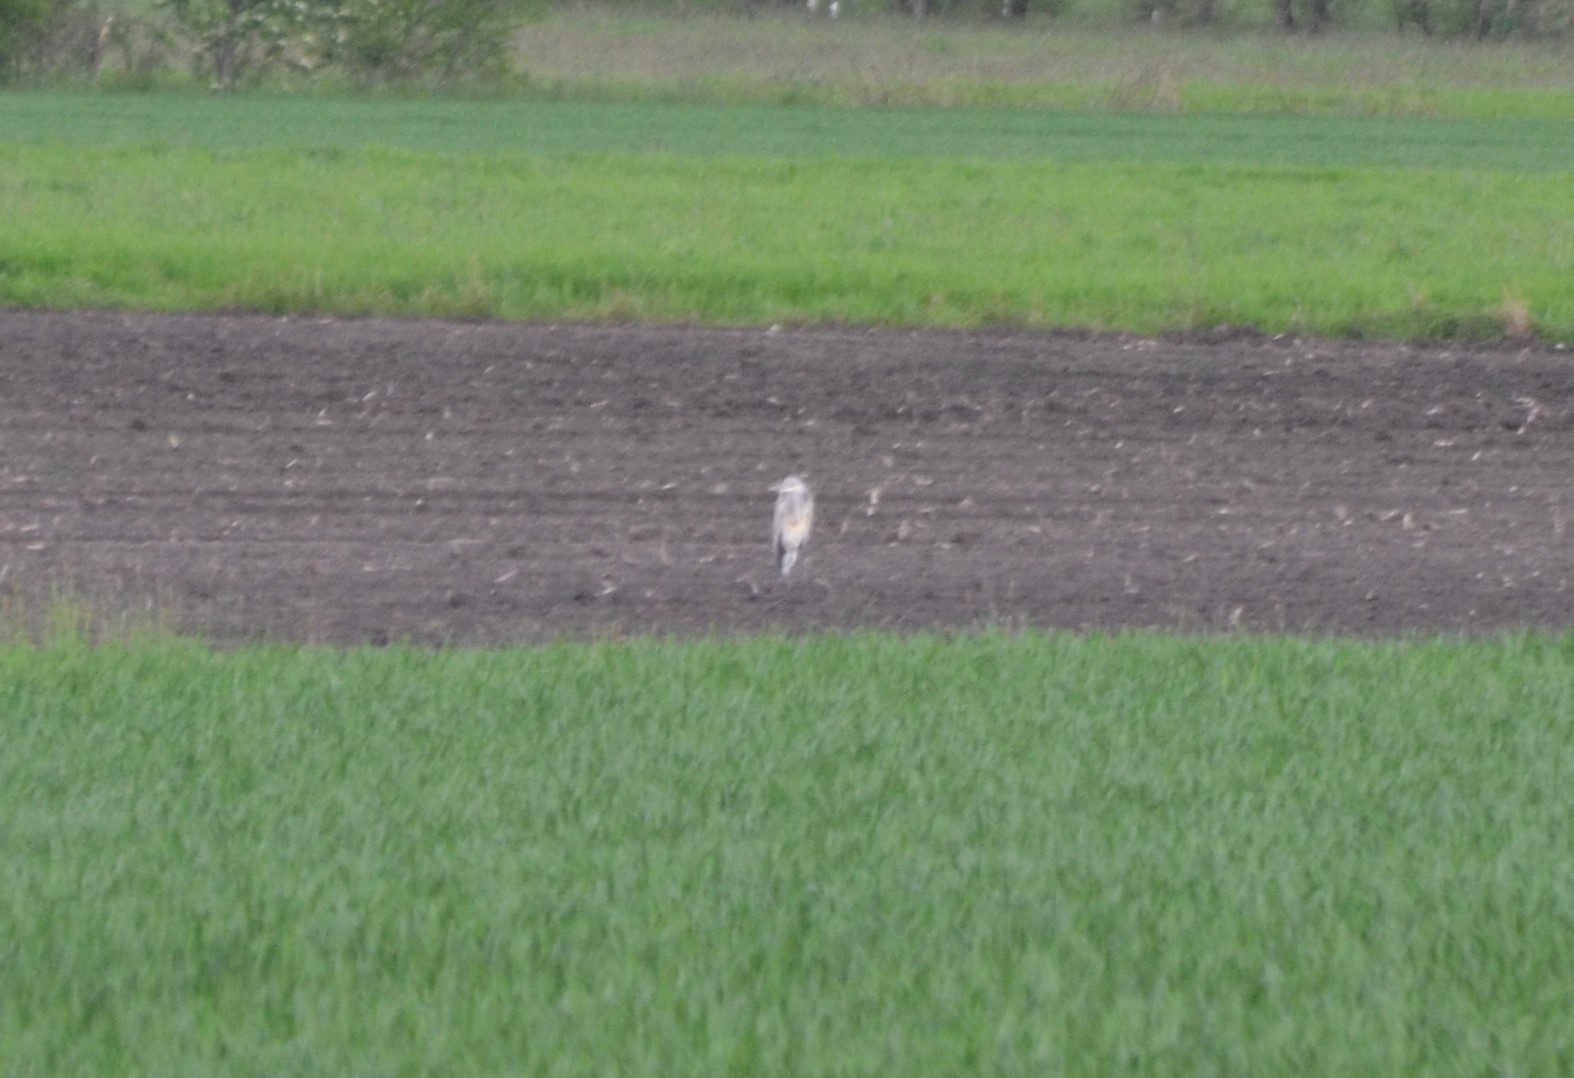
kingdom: Animalia
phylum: Chordata
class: Aves
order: Pelecaniformes
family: Ardeidae
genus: Ardea
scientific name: Ardea cinerea
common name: Grey heron
